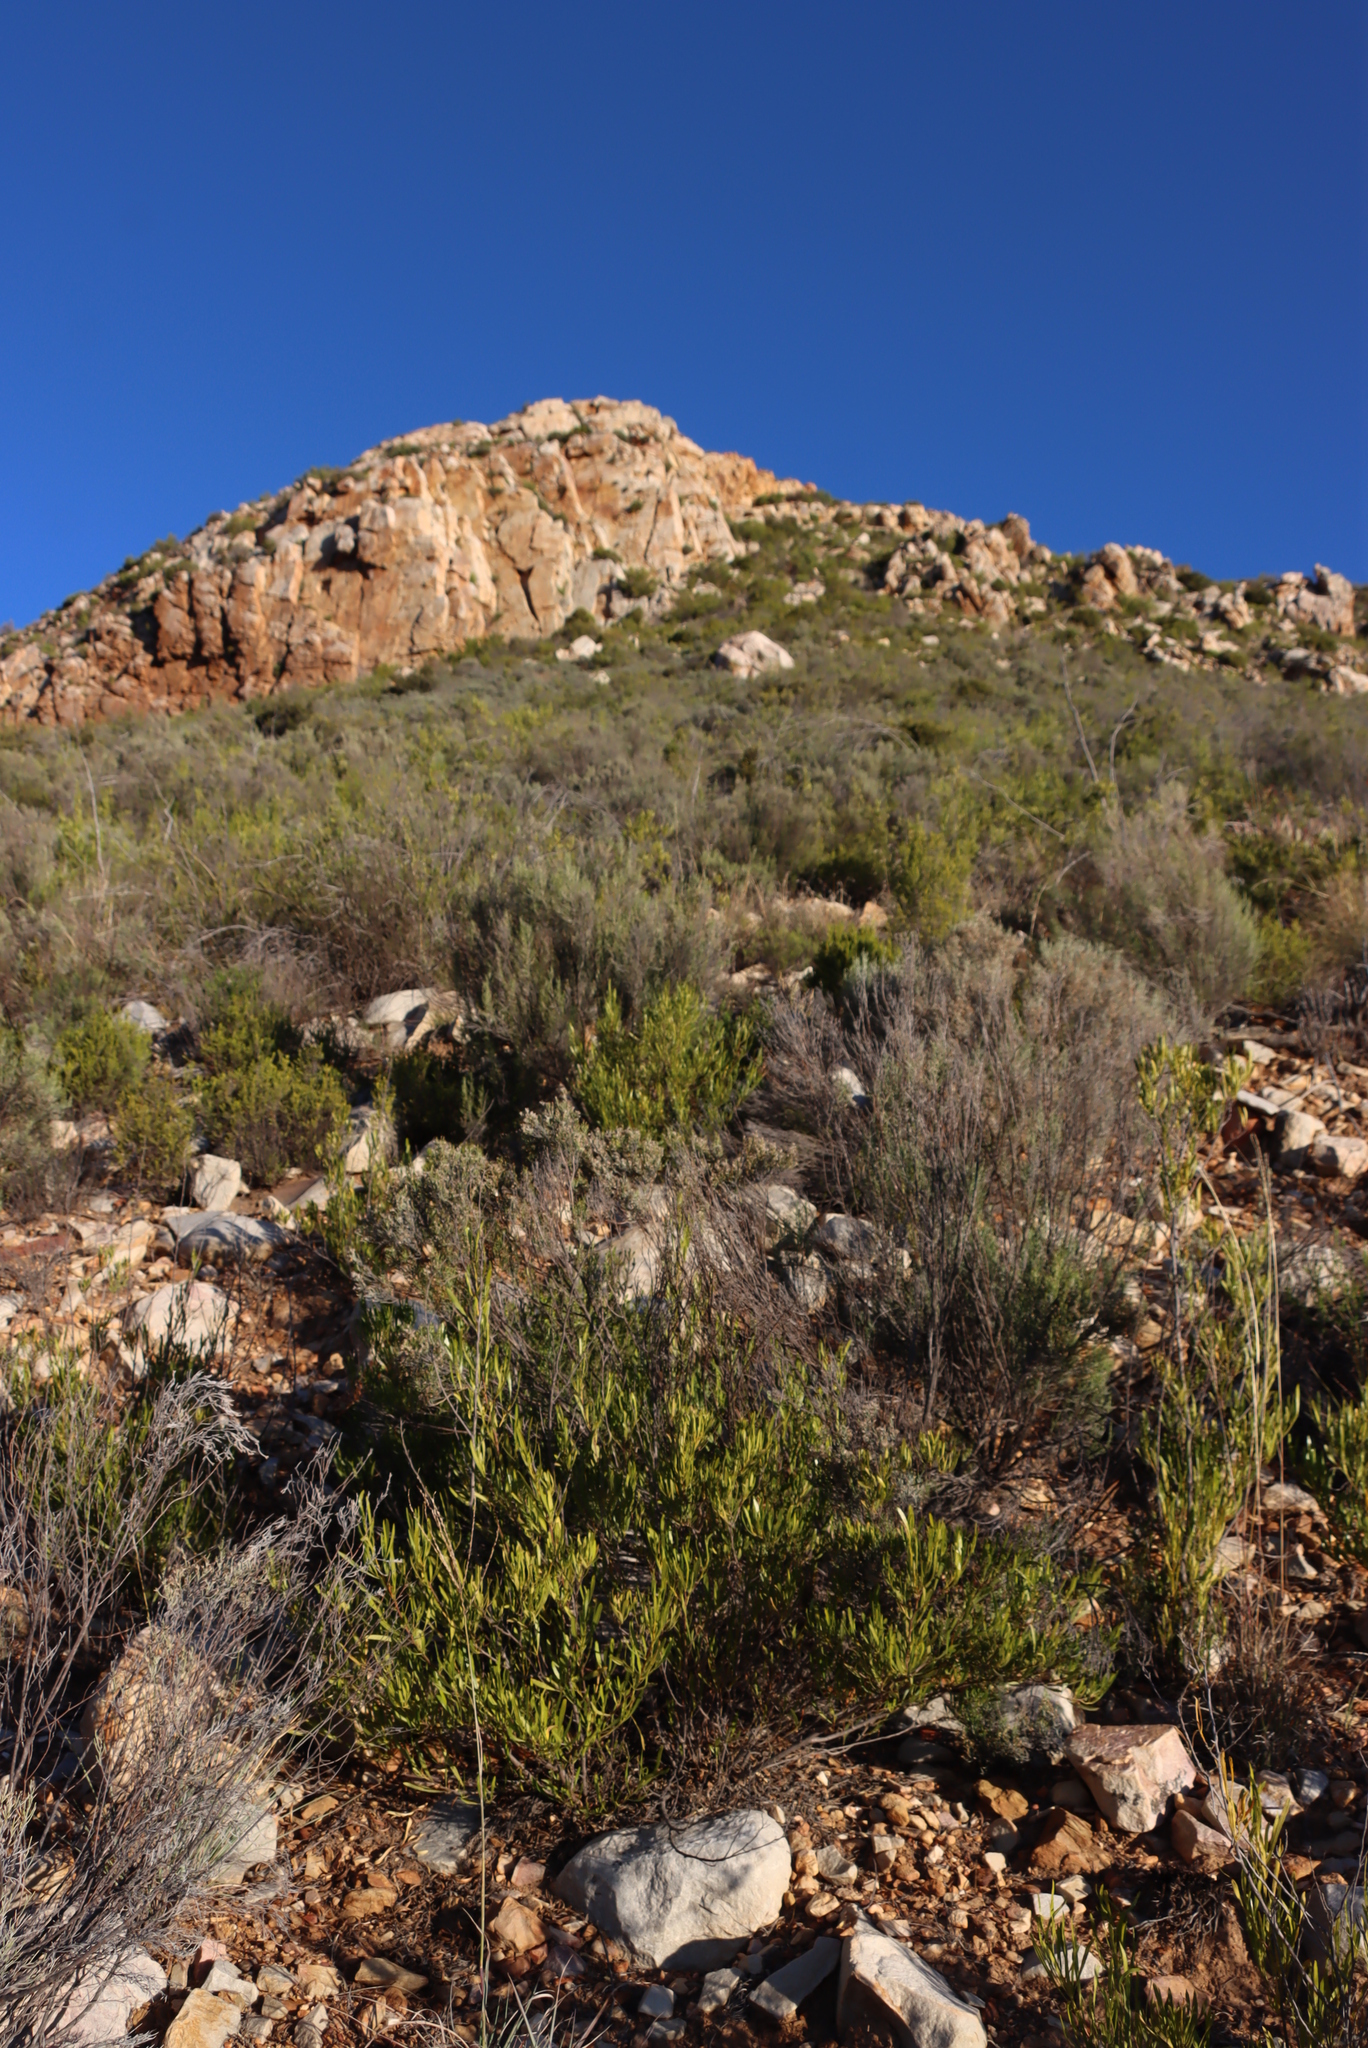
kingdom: Plantae
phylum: Tracheophyta
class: Magnoliopsida
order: Asterales
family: Asteraceae
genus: Dicerothamnus
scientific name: Dicerothamnus rhinocerotis
